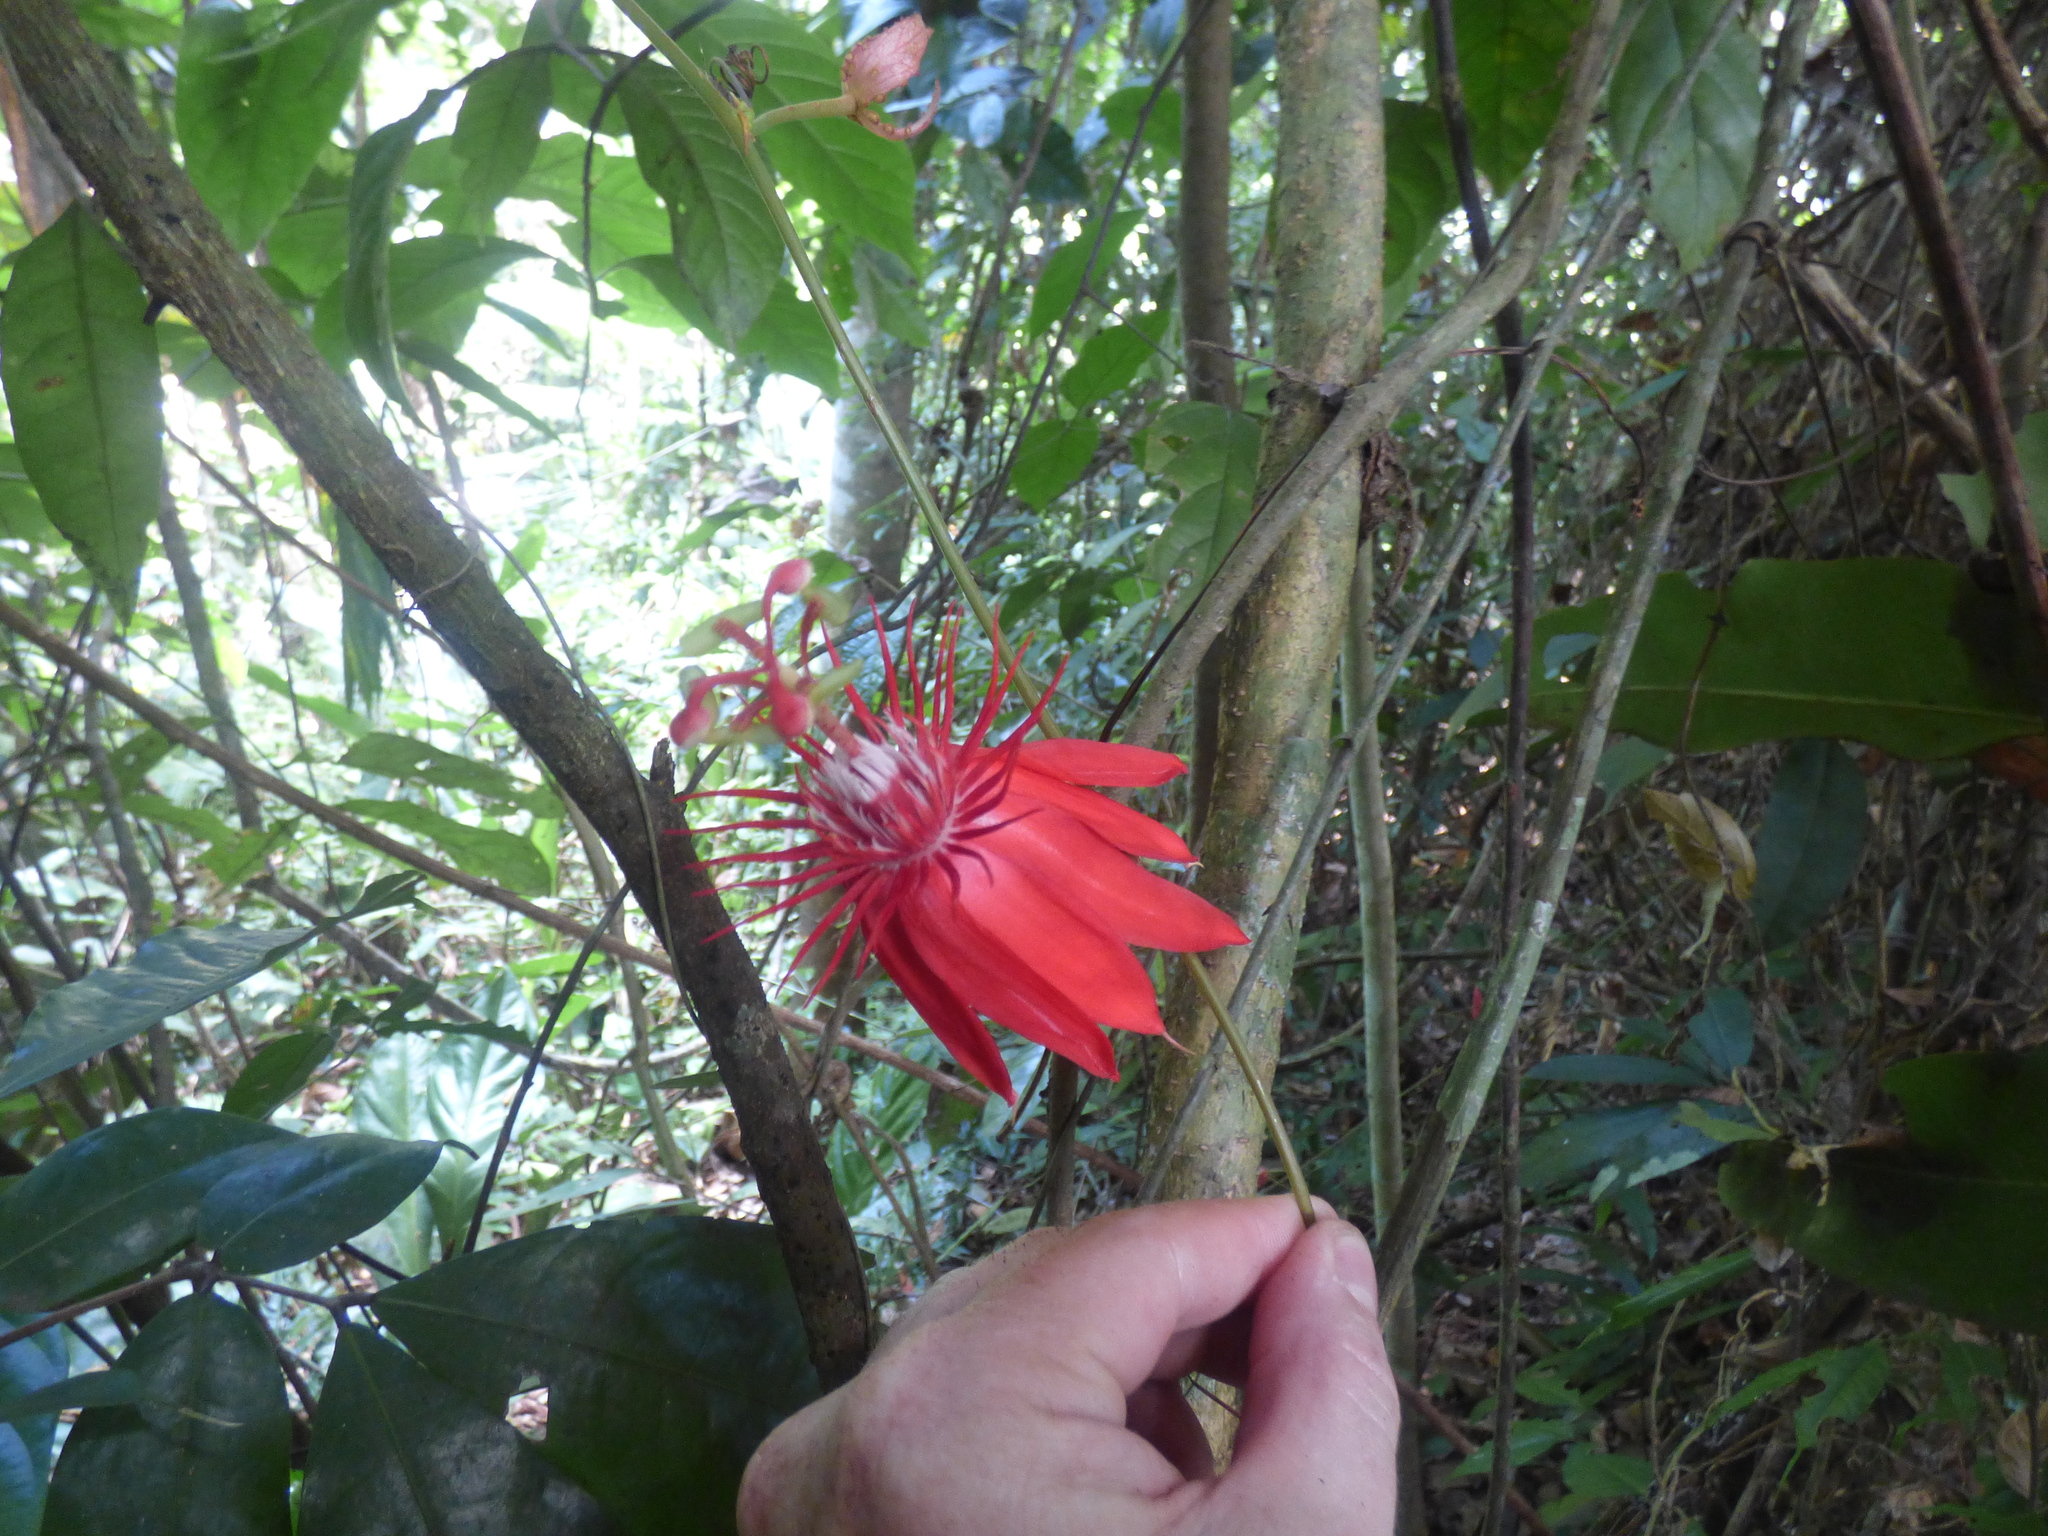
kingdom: Plantae
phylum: Tracheophyta
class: Magnoliopsida
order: Malpighiales
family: Passifloraceae
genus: Passiflora
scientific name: Passiflora vitifolia
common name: Perfumed passionflower
